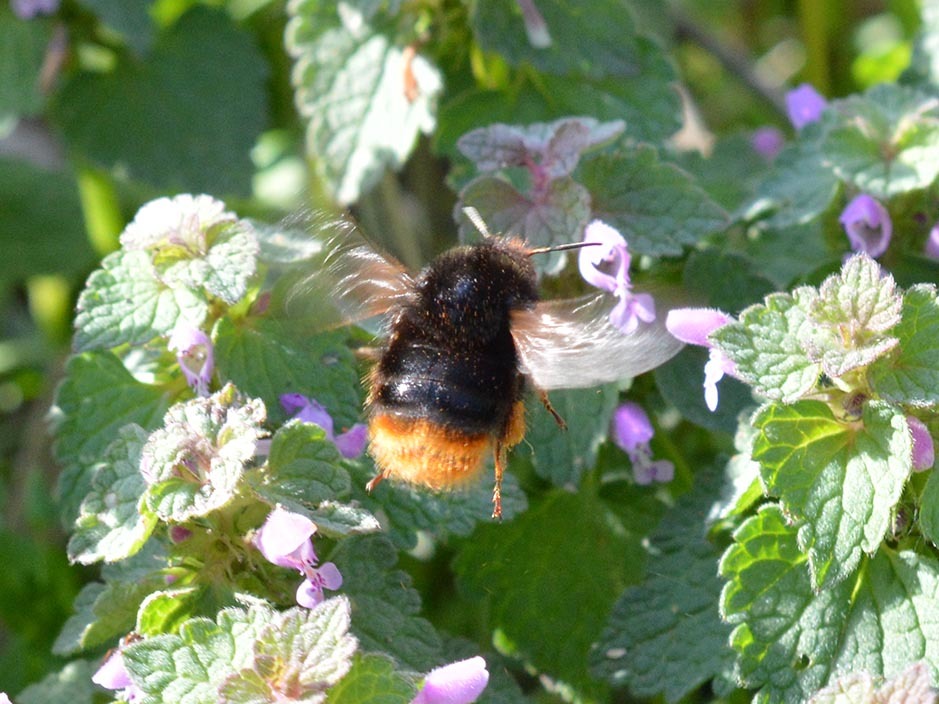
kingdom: Animalia
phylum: Arthropoda
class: Insecta
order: Hymenoptera
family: Apidae
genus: Bombus
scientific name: Bombus ruderarius
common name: Red-shanked carder-bee
